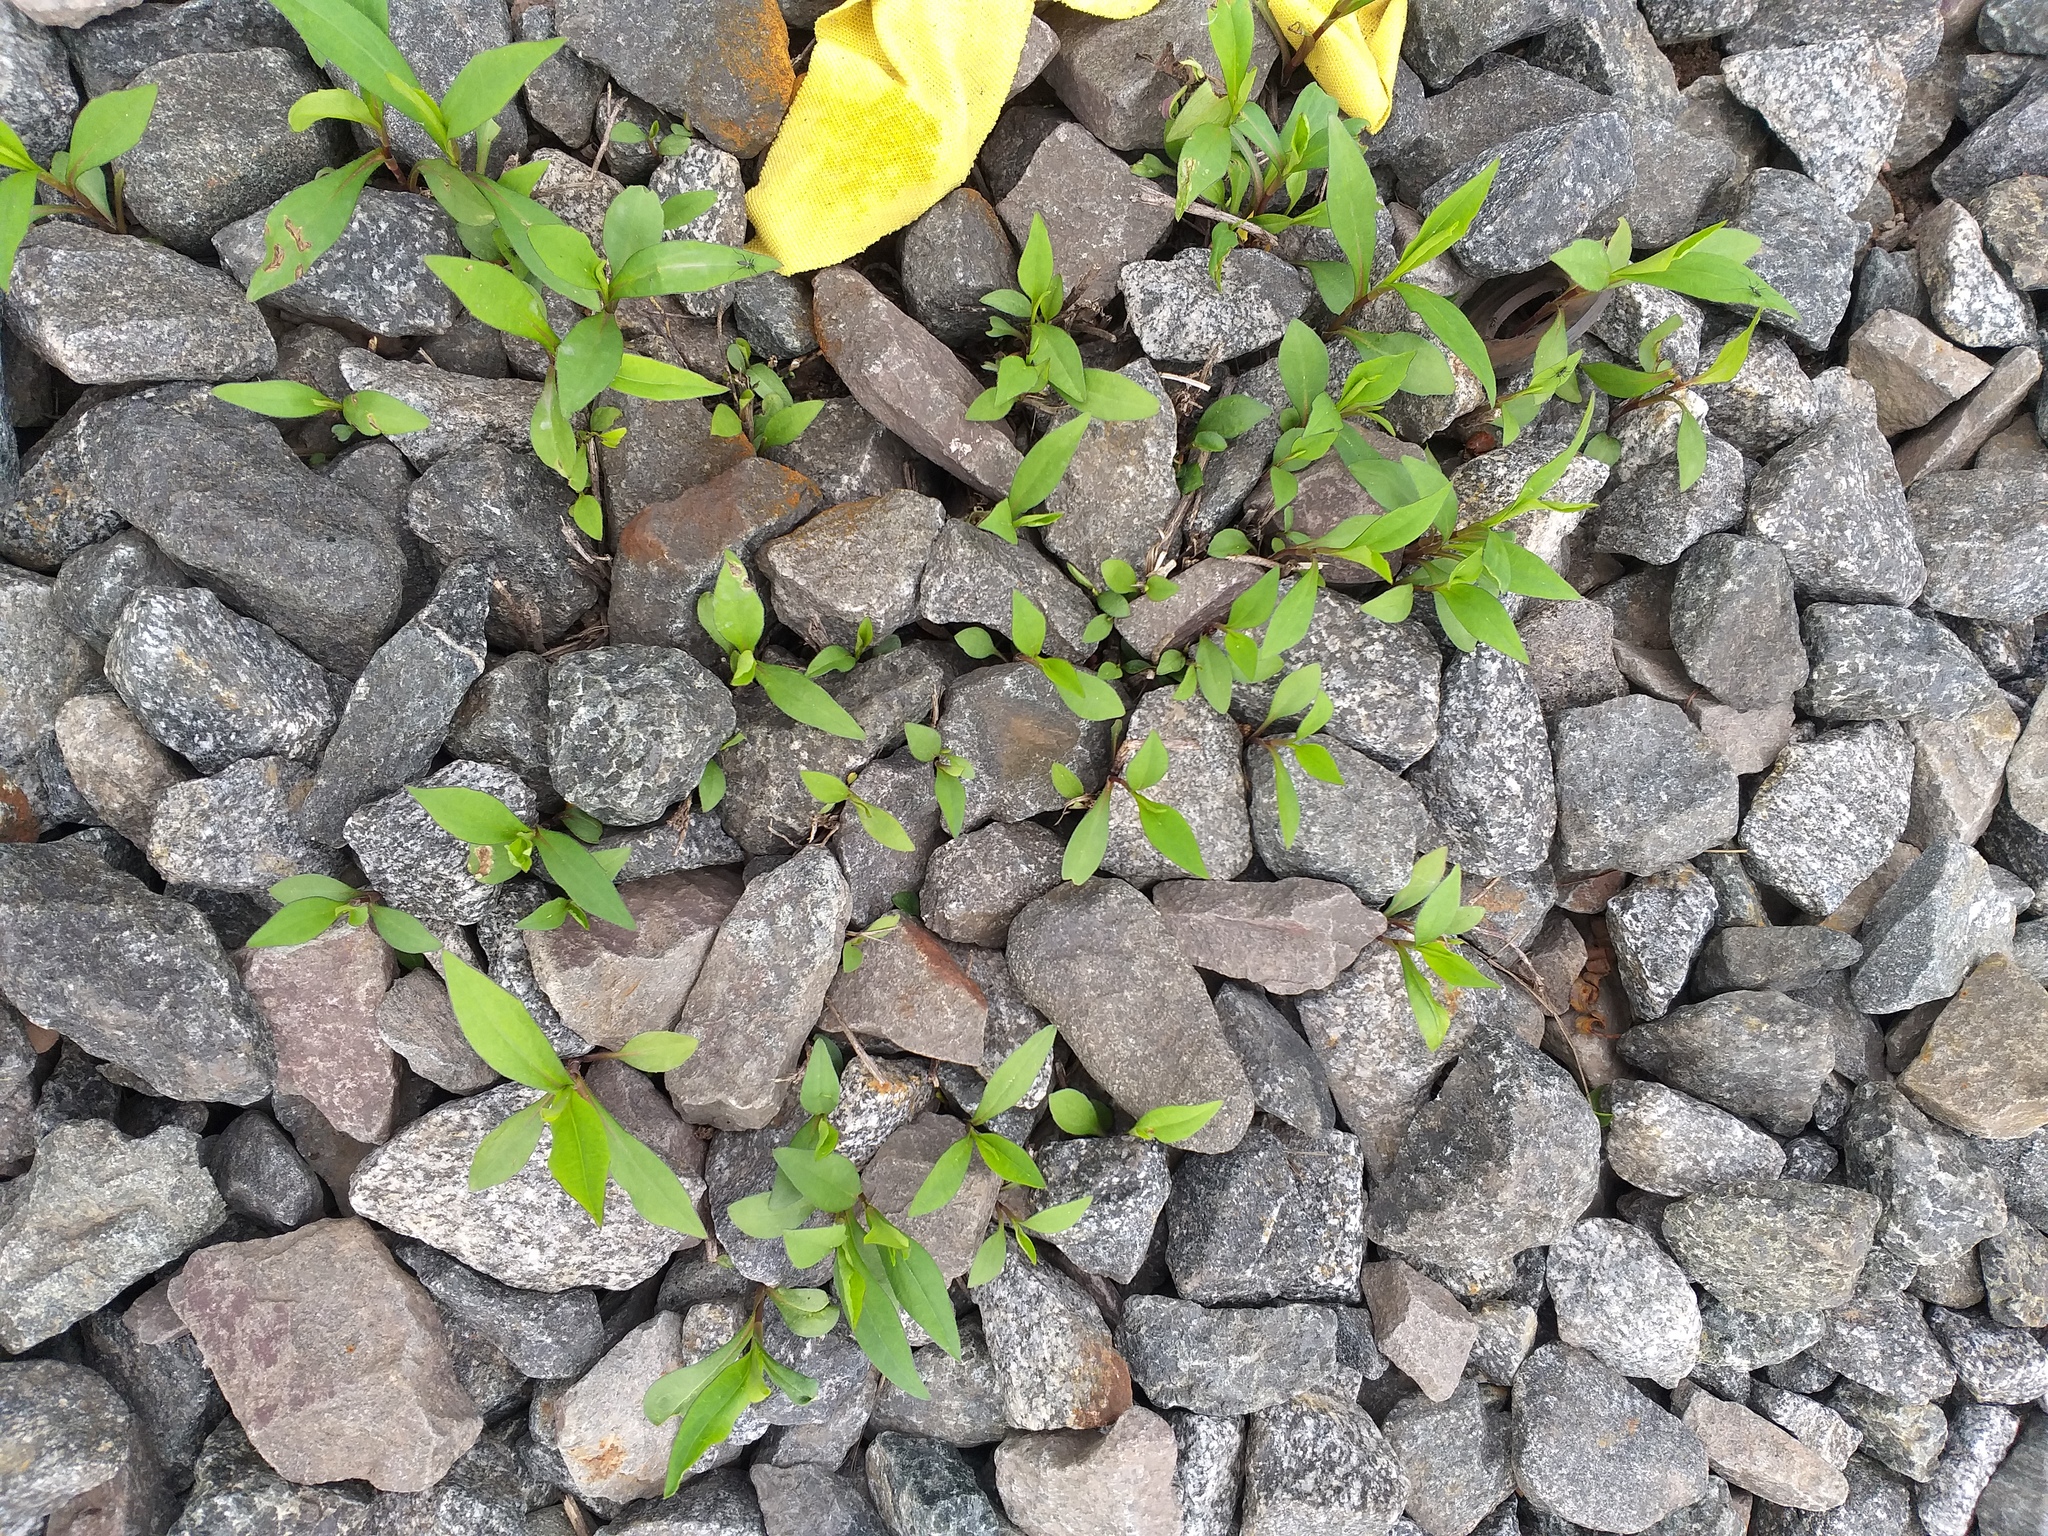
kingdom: Plantae
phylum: Tracheophyta
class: Magnoliopsida
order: Asterales
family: Asteraceae
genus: Symphyotrichum
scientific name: Symphyotrichum
